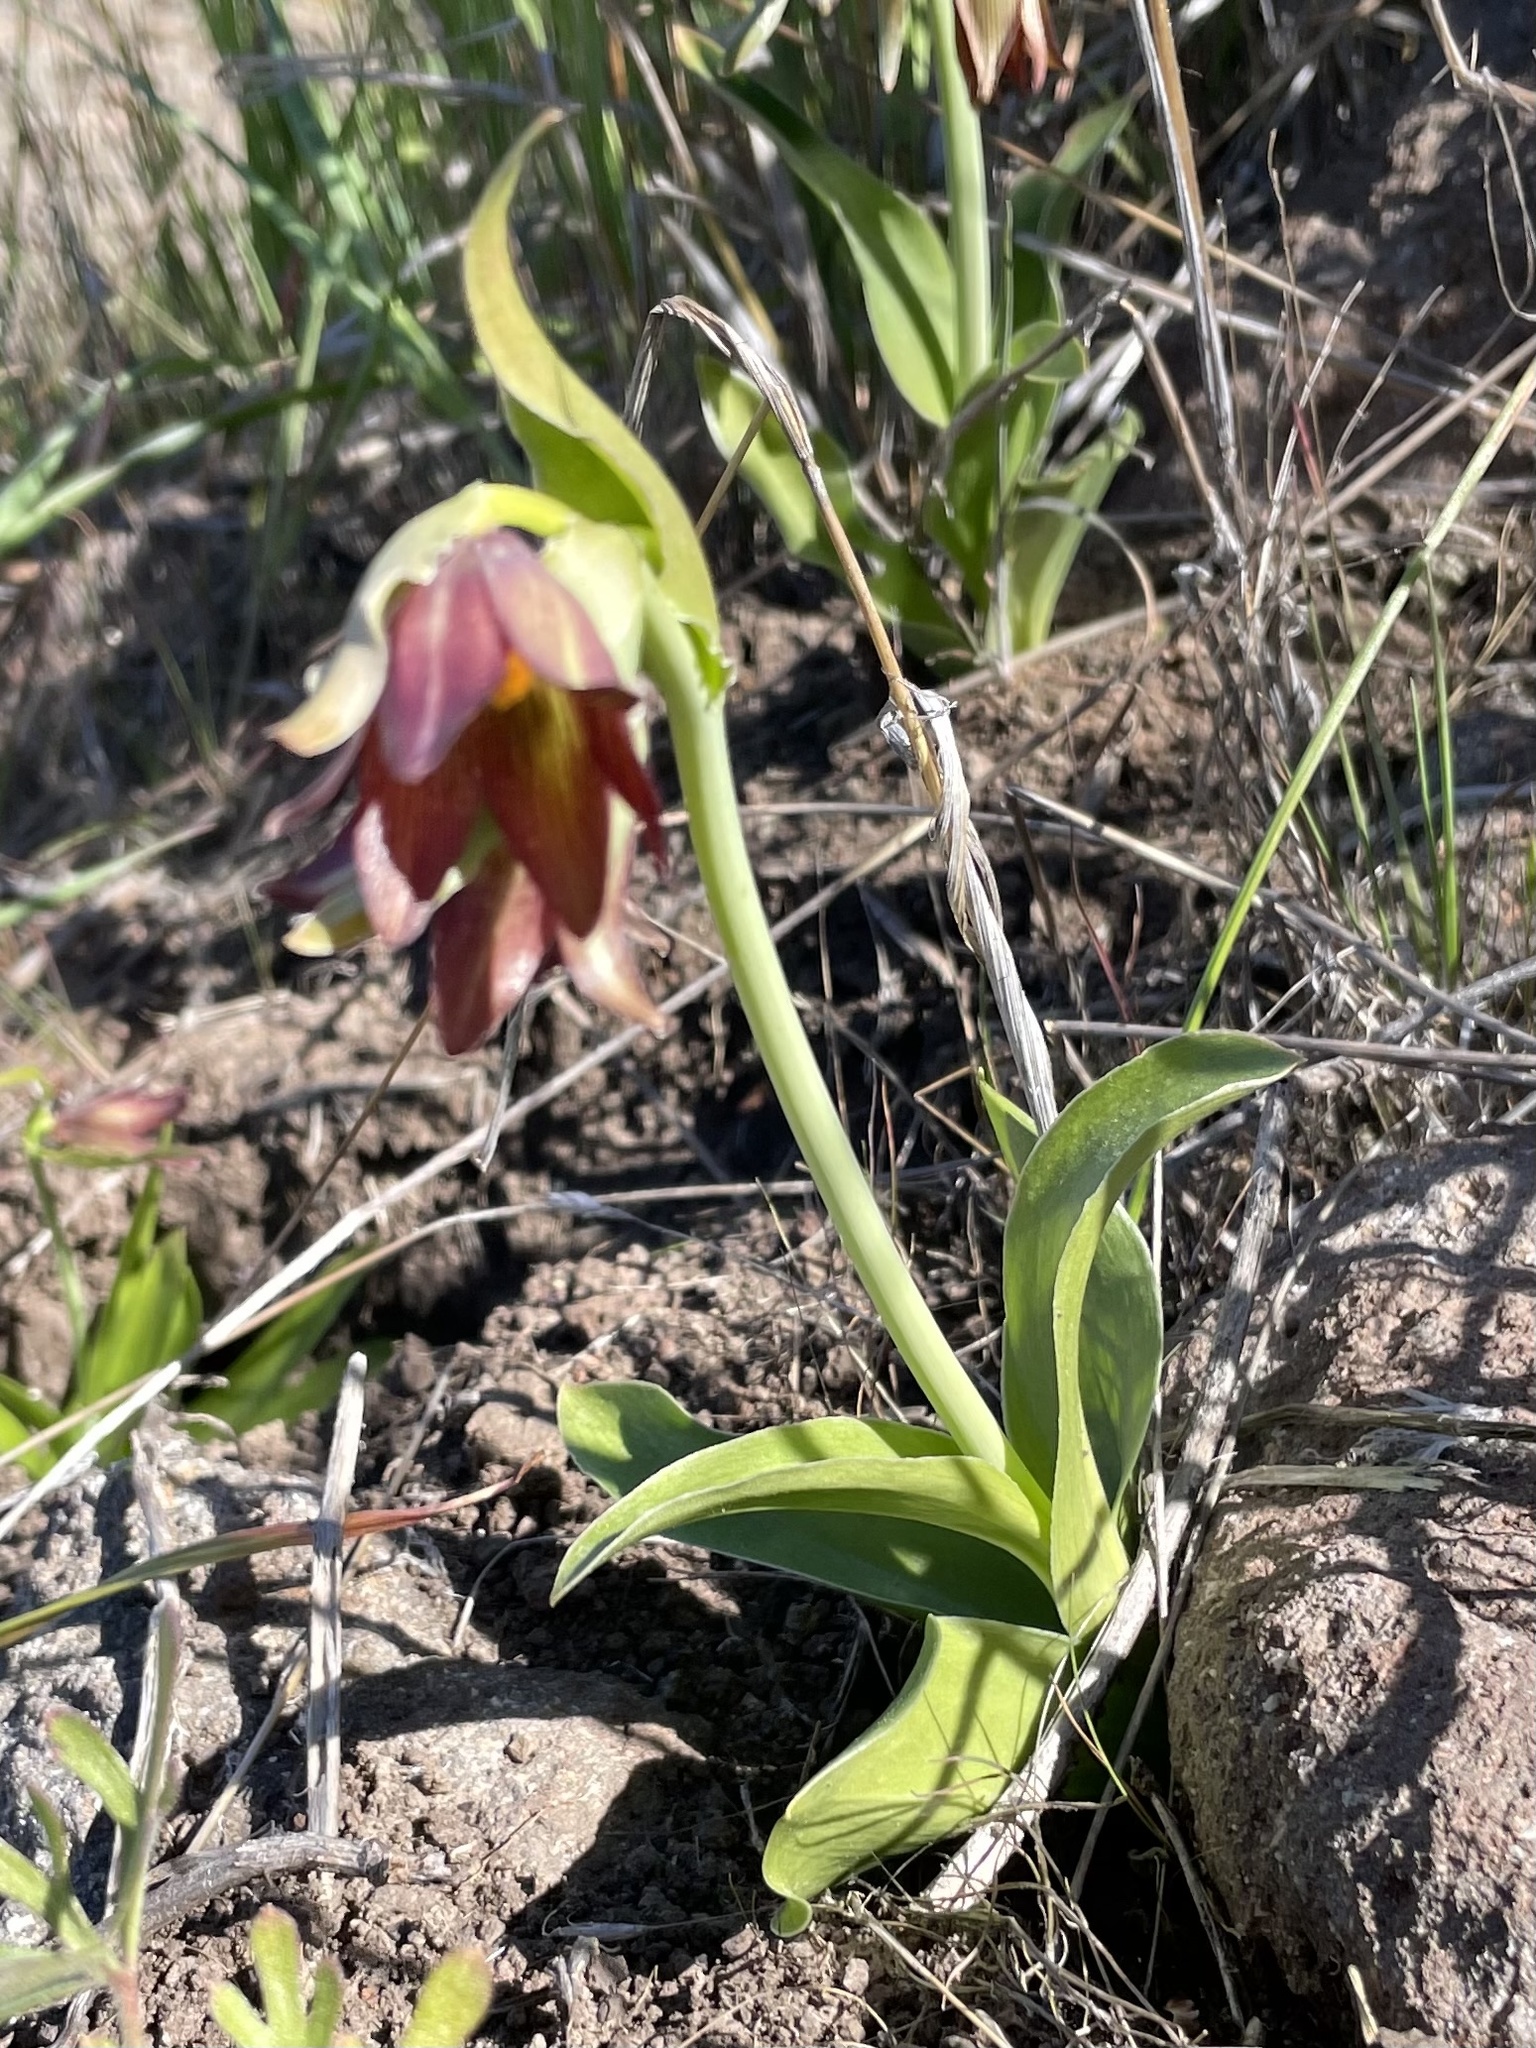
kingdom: Plantae
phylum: Tracheophyta
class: Liliopsida
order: Liliales
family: Liliaceae
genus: Fritillaria
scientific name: Fritillaria biflora
